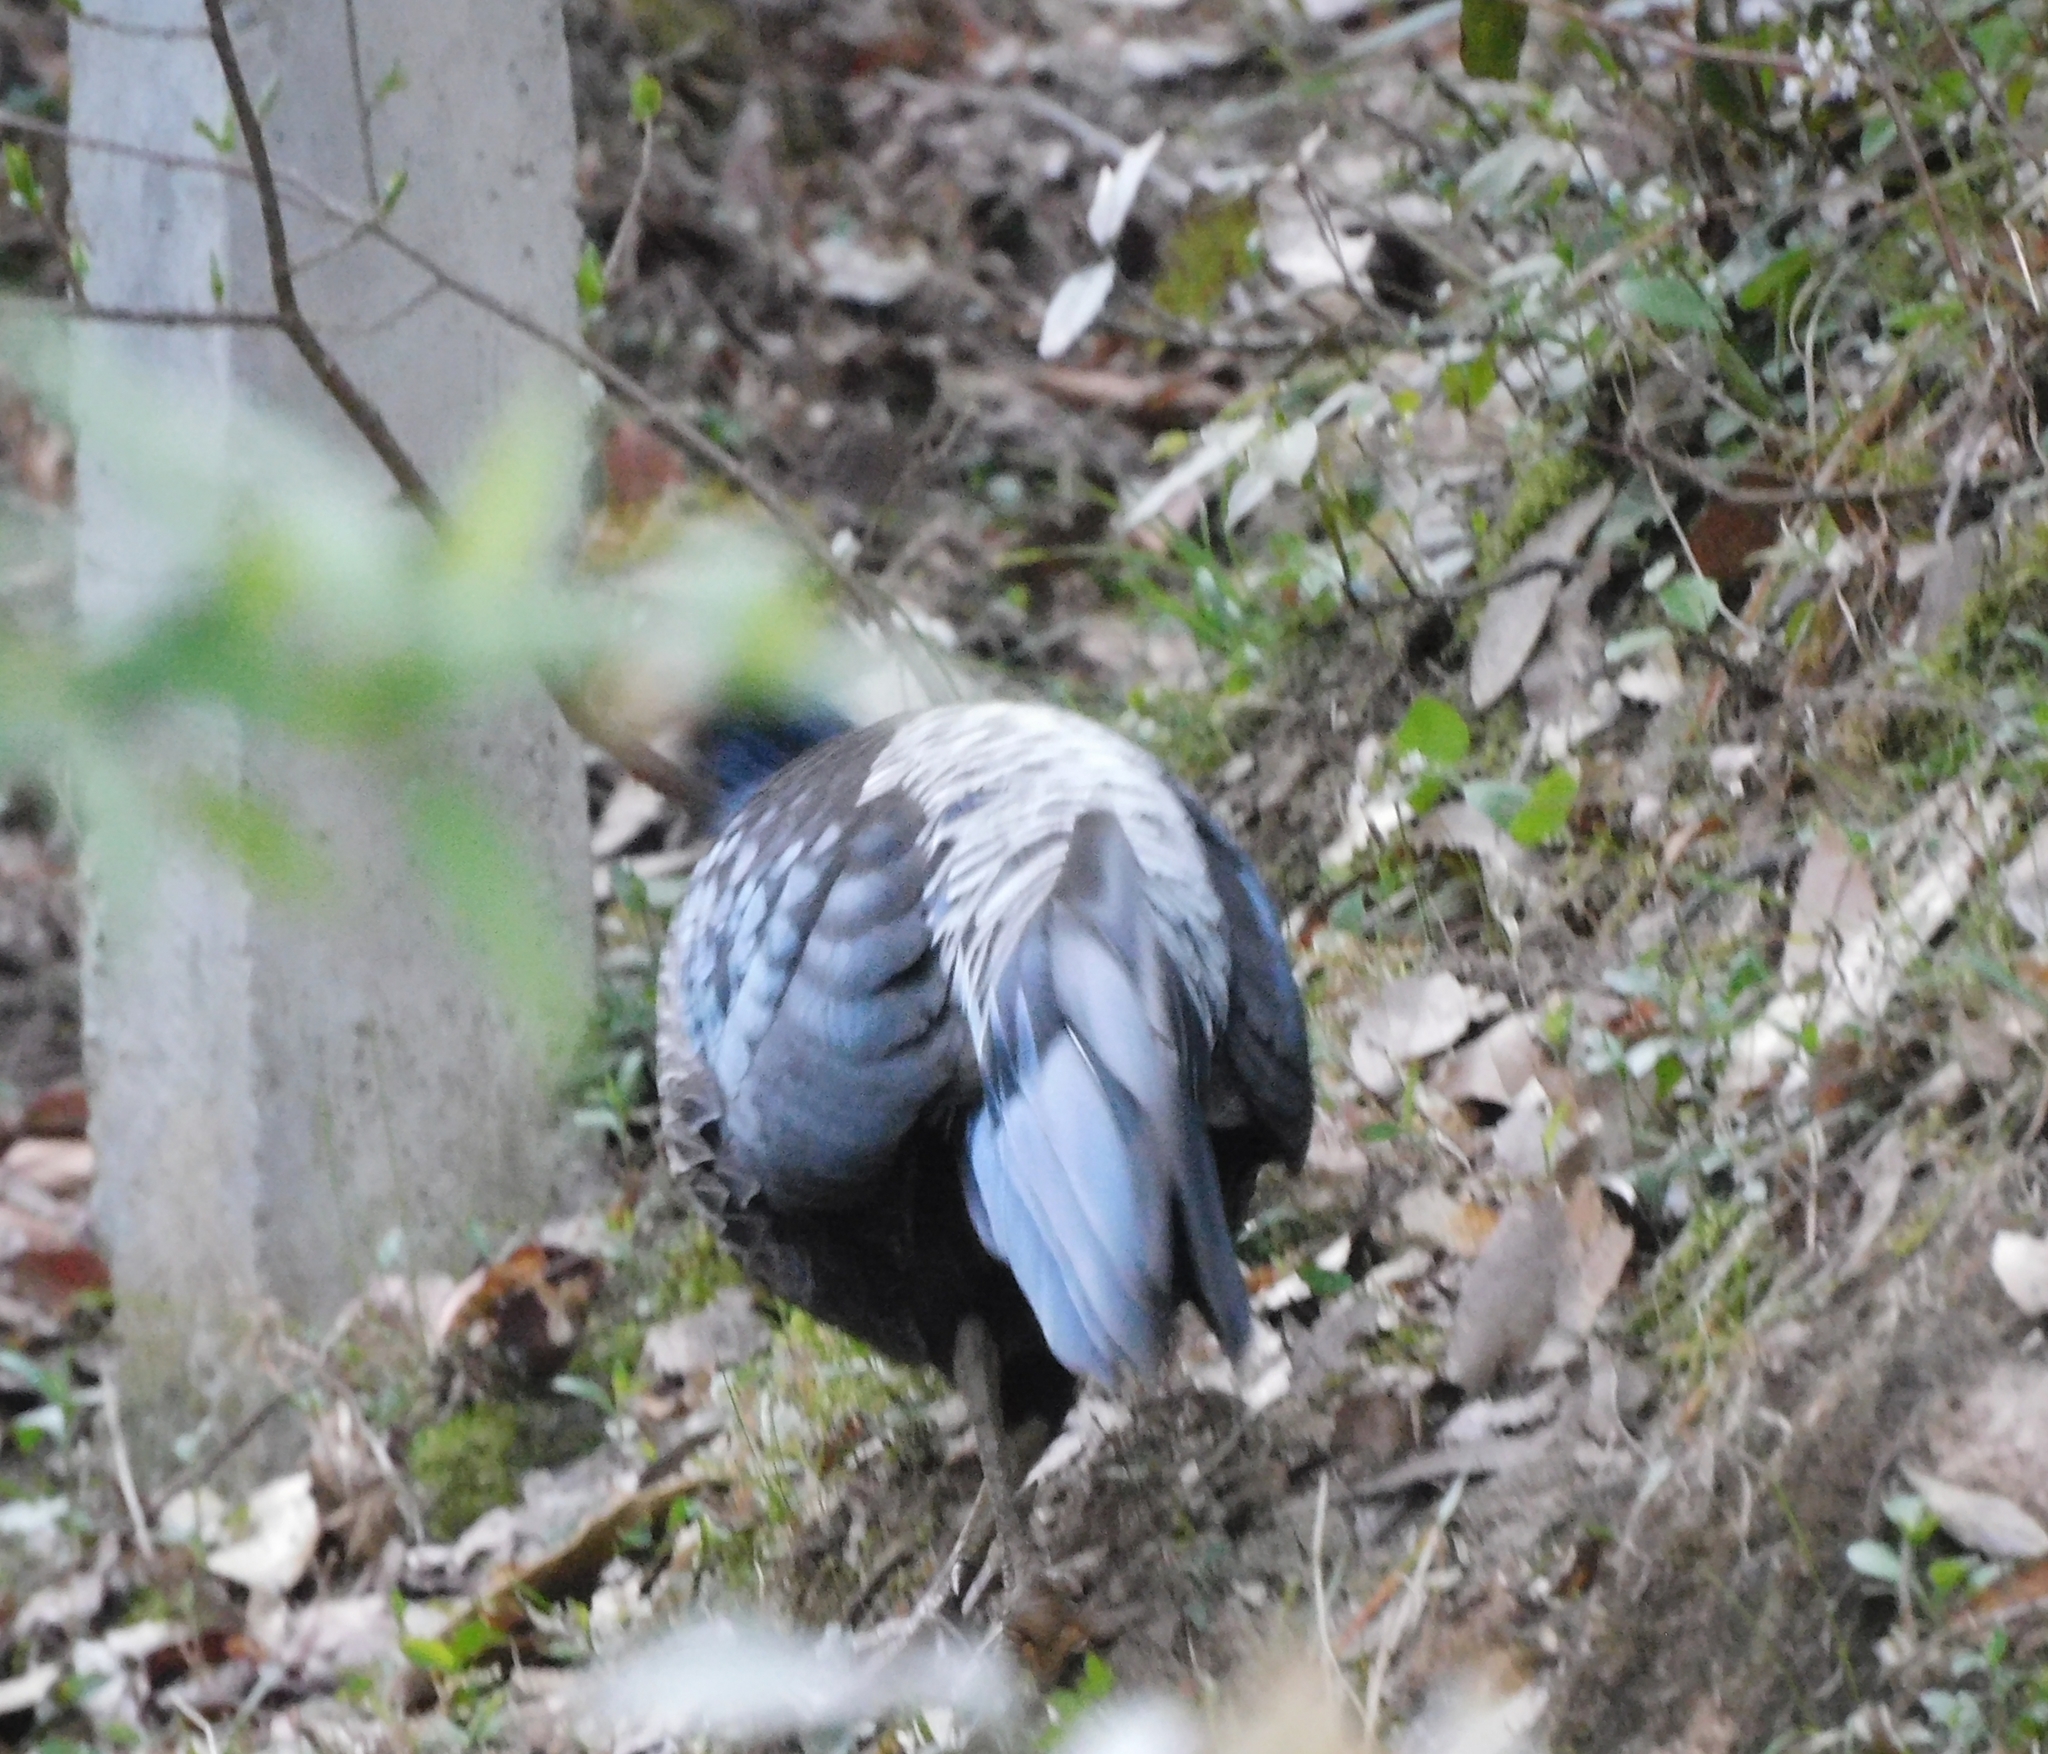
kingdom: Animalia
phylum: Chordata
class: Aves
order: Galliformes
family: Phasianidae
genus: Lophura
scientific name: Lophura leucomelanos
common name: Kalij pheasant
